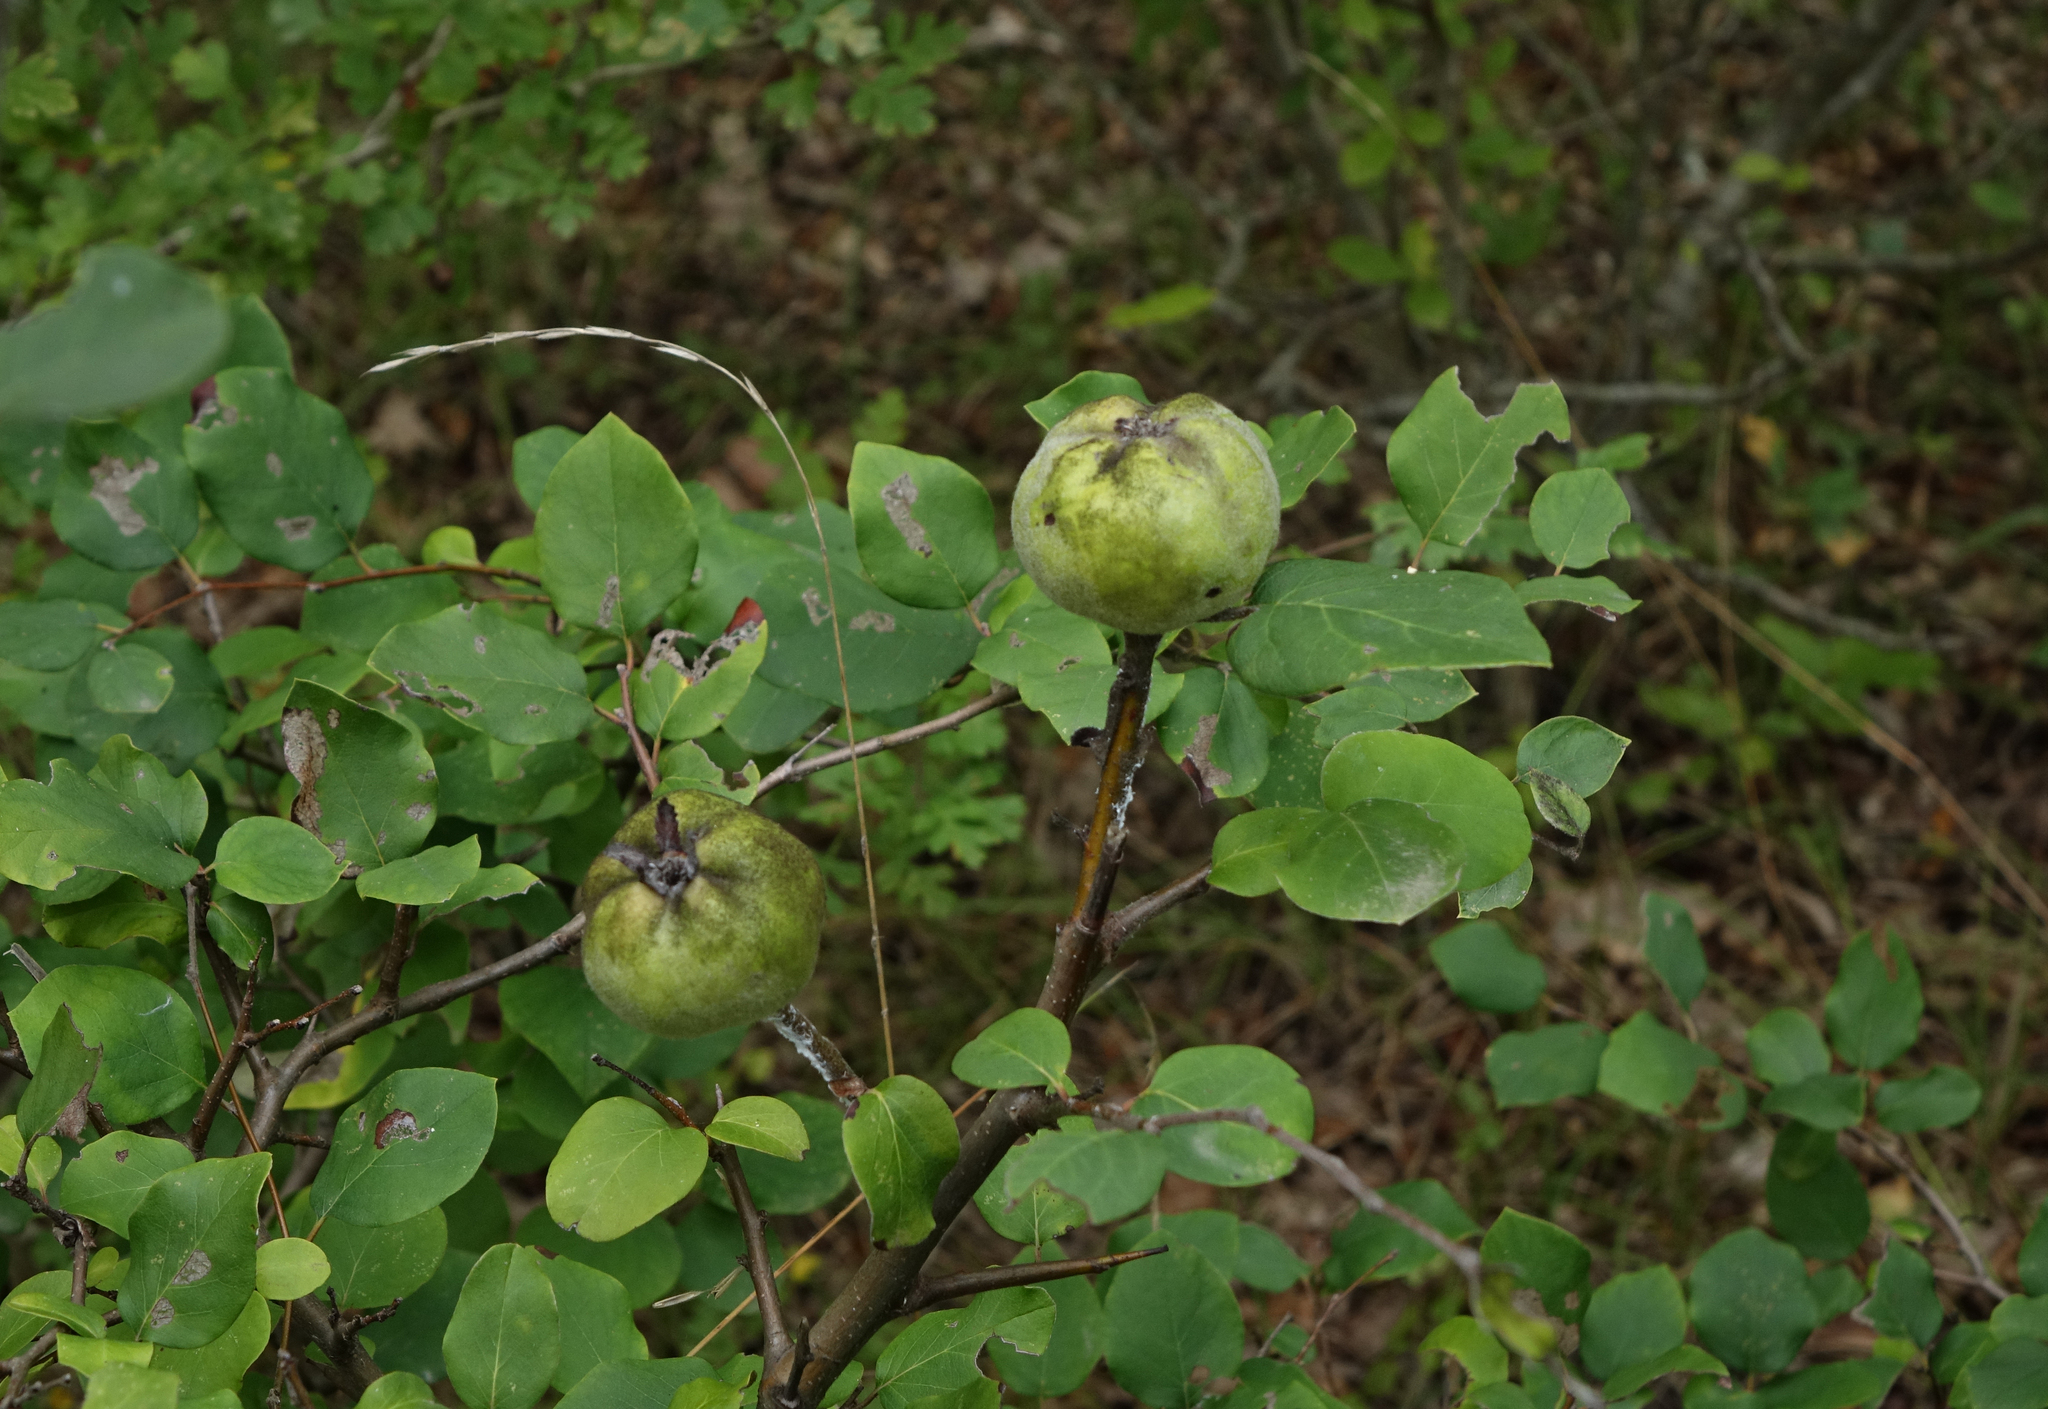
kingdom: Plantae
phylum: Tracheophyta
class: Magnoliopsida
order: Rosales
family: Rosaceae
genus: Cydonia
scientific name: Cydonia oblonga
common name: Quince
